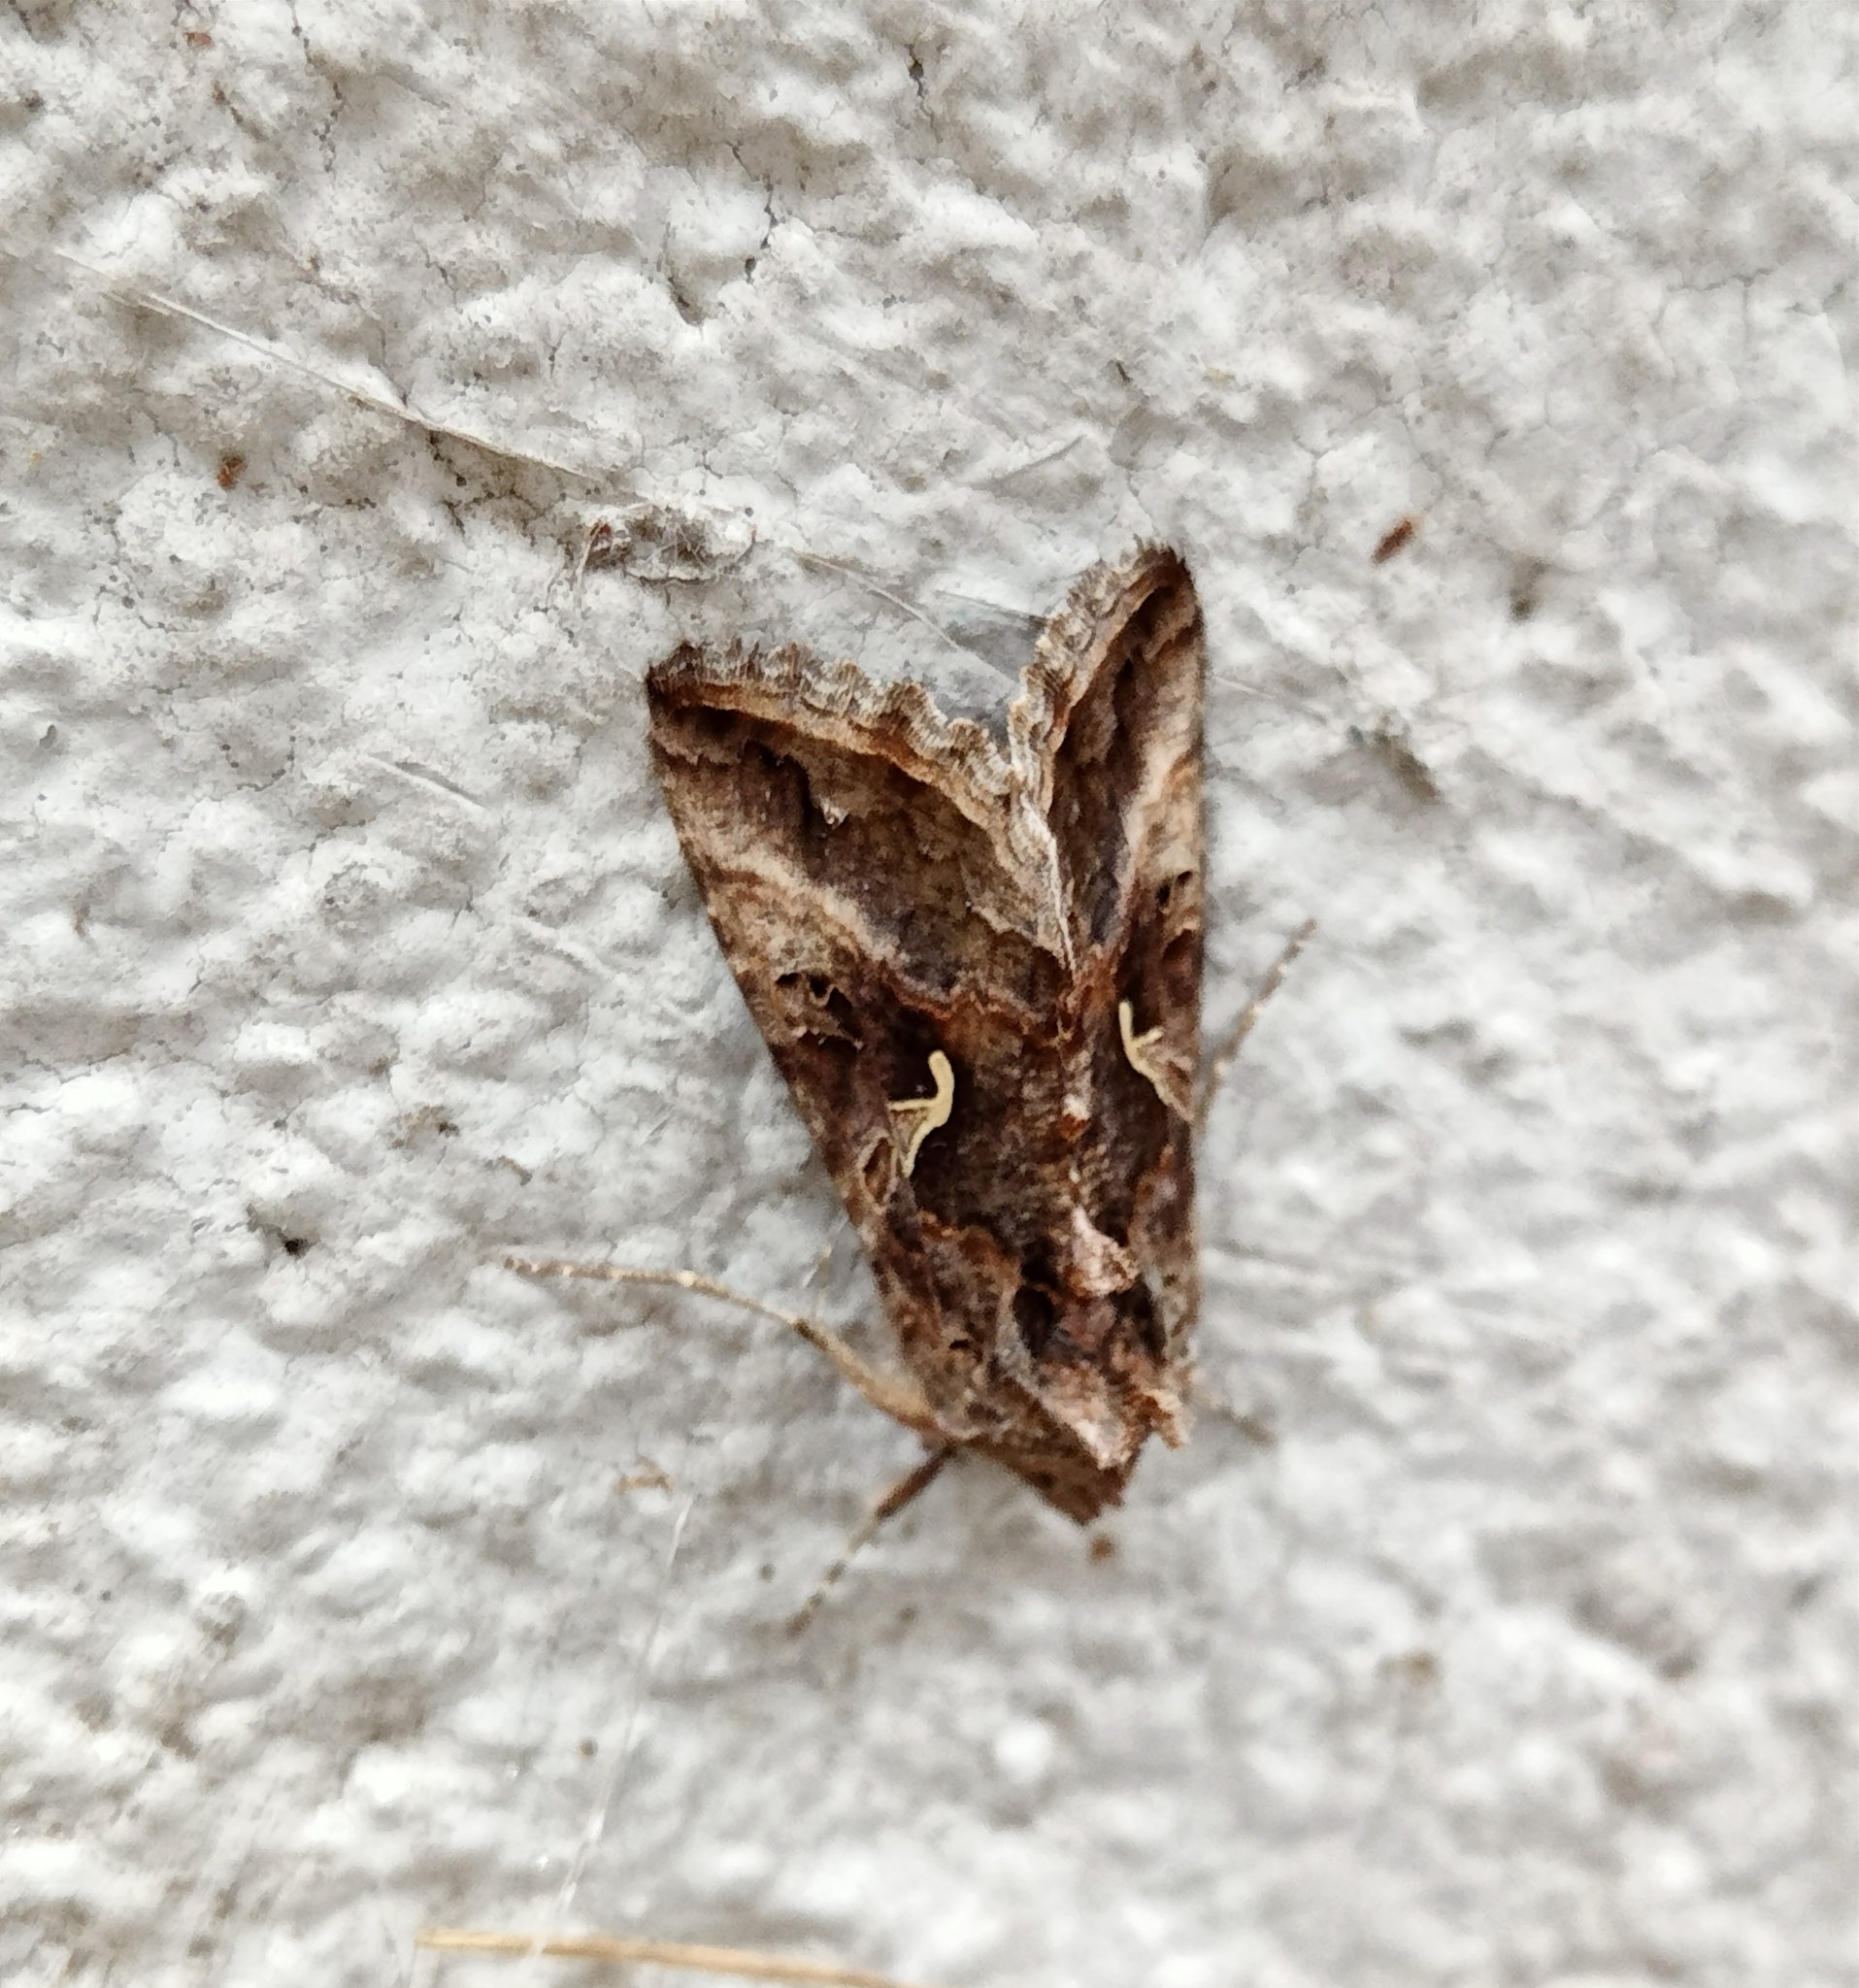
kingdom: Animalia
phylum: Arthropoda
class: Insecta
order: Lepidoptera
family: Noctuidae
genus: Autographa
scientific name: Autographa gamma
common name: Silver y
